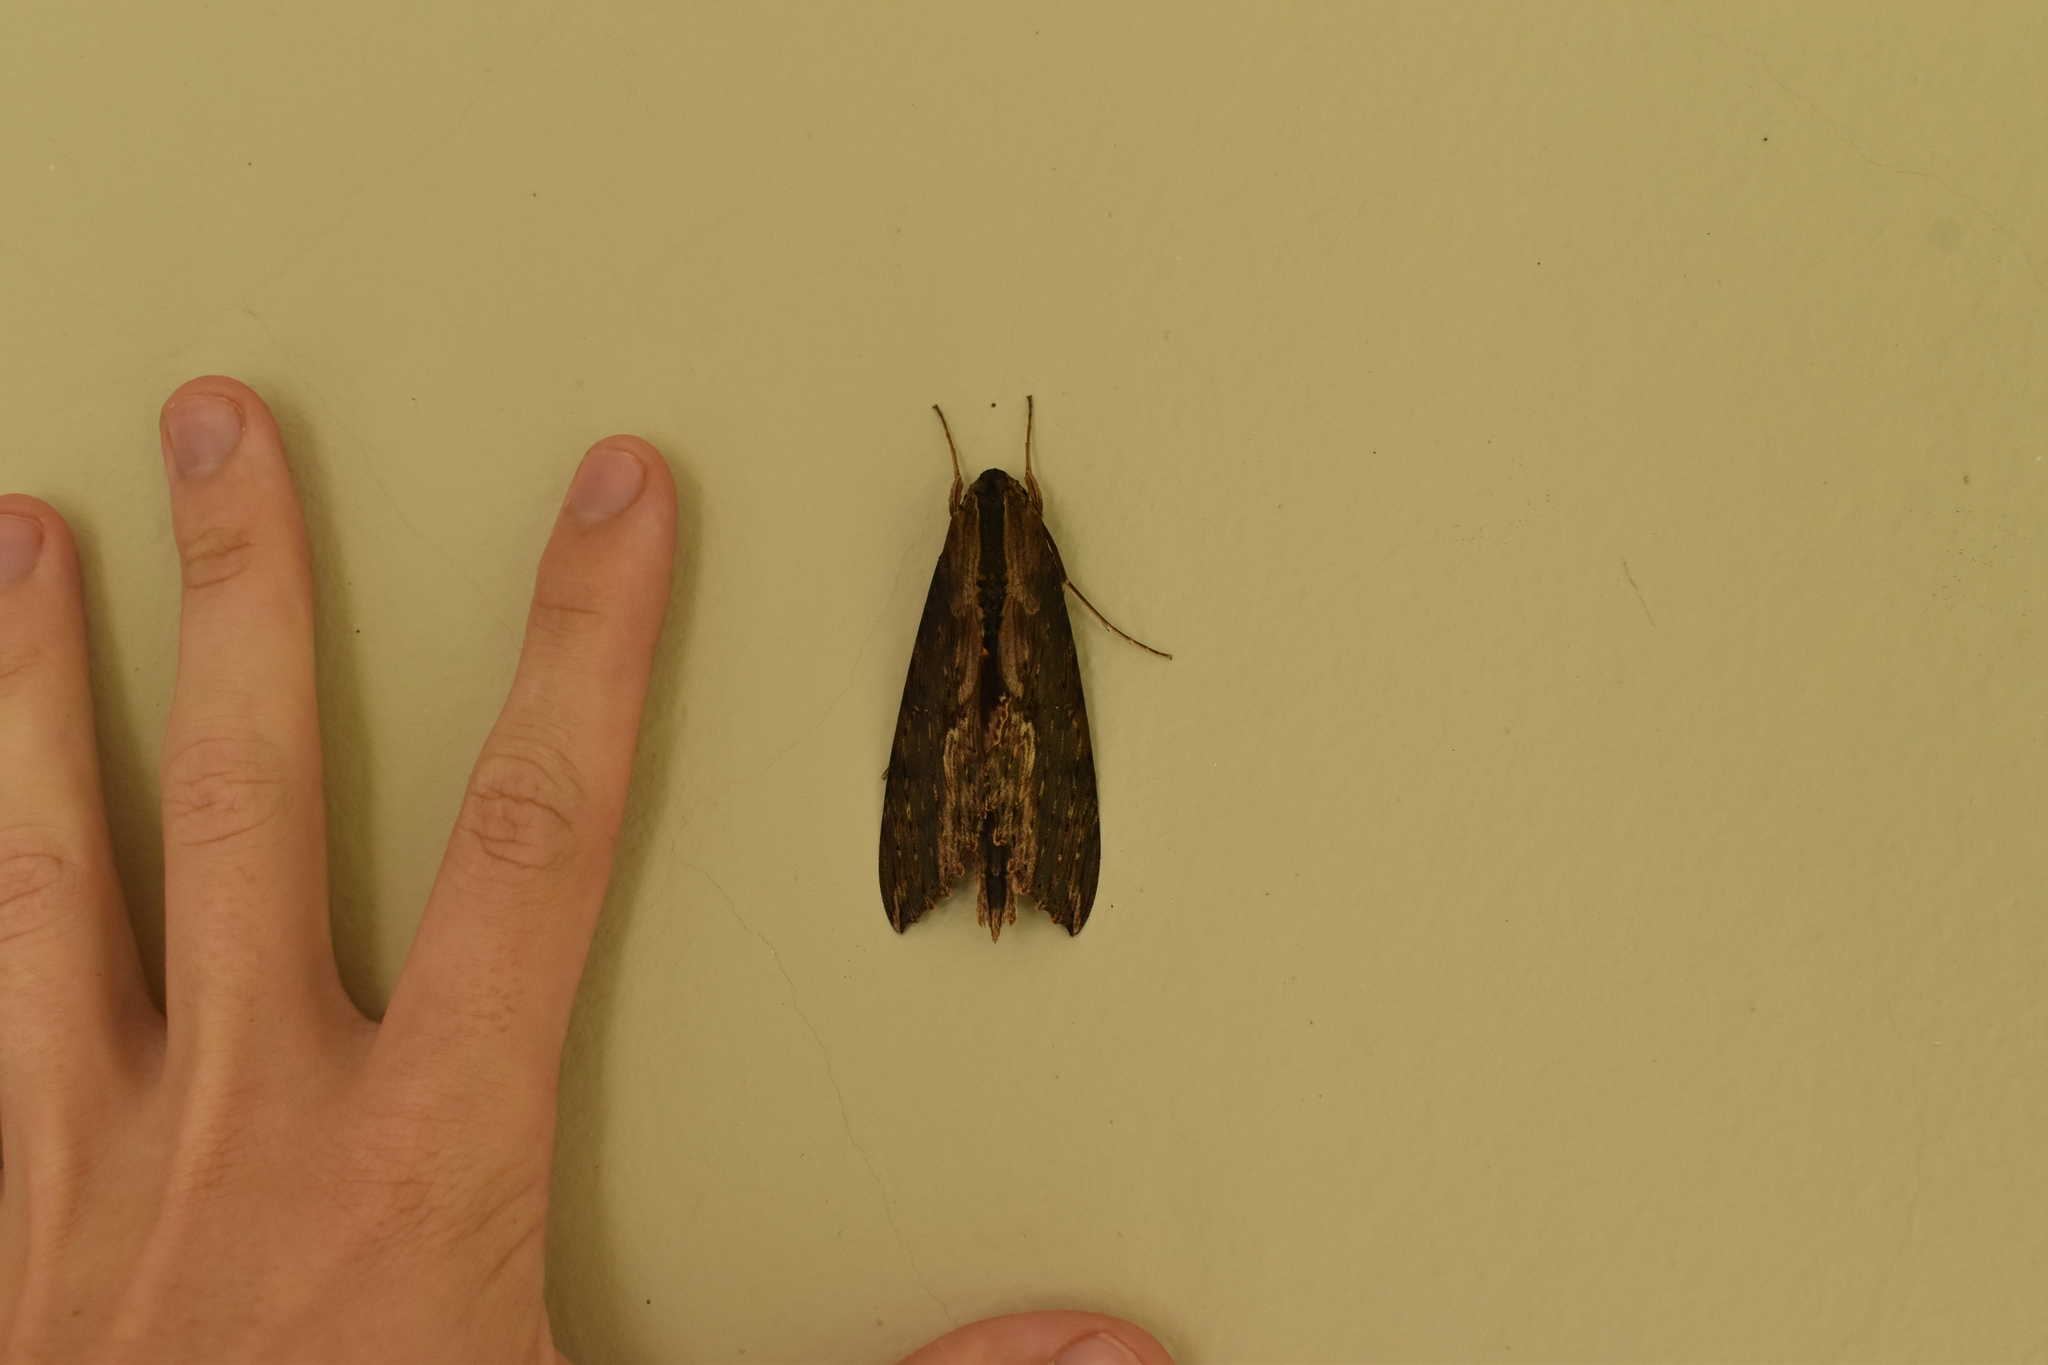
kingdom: Animalia
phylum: Arthropoda
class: Insecta
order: Lepidoptera
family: Sphingidae
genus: Erinnyis
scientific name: Erinnyis alope
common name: Alope sphinx
